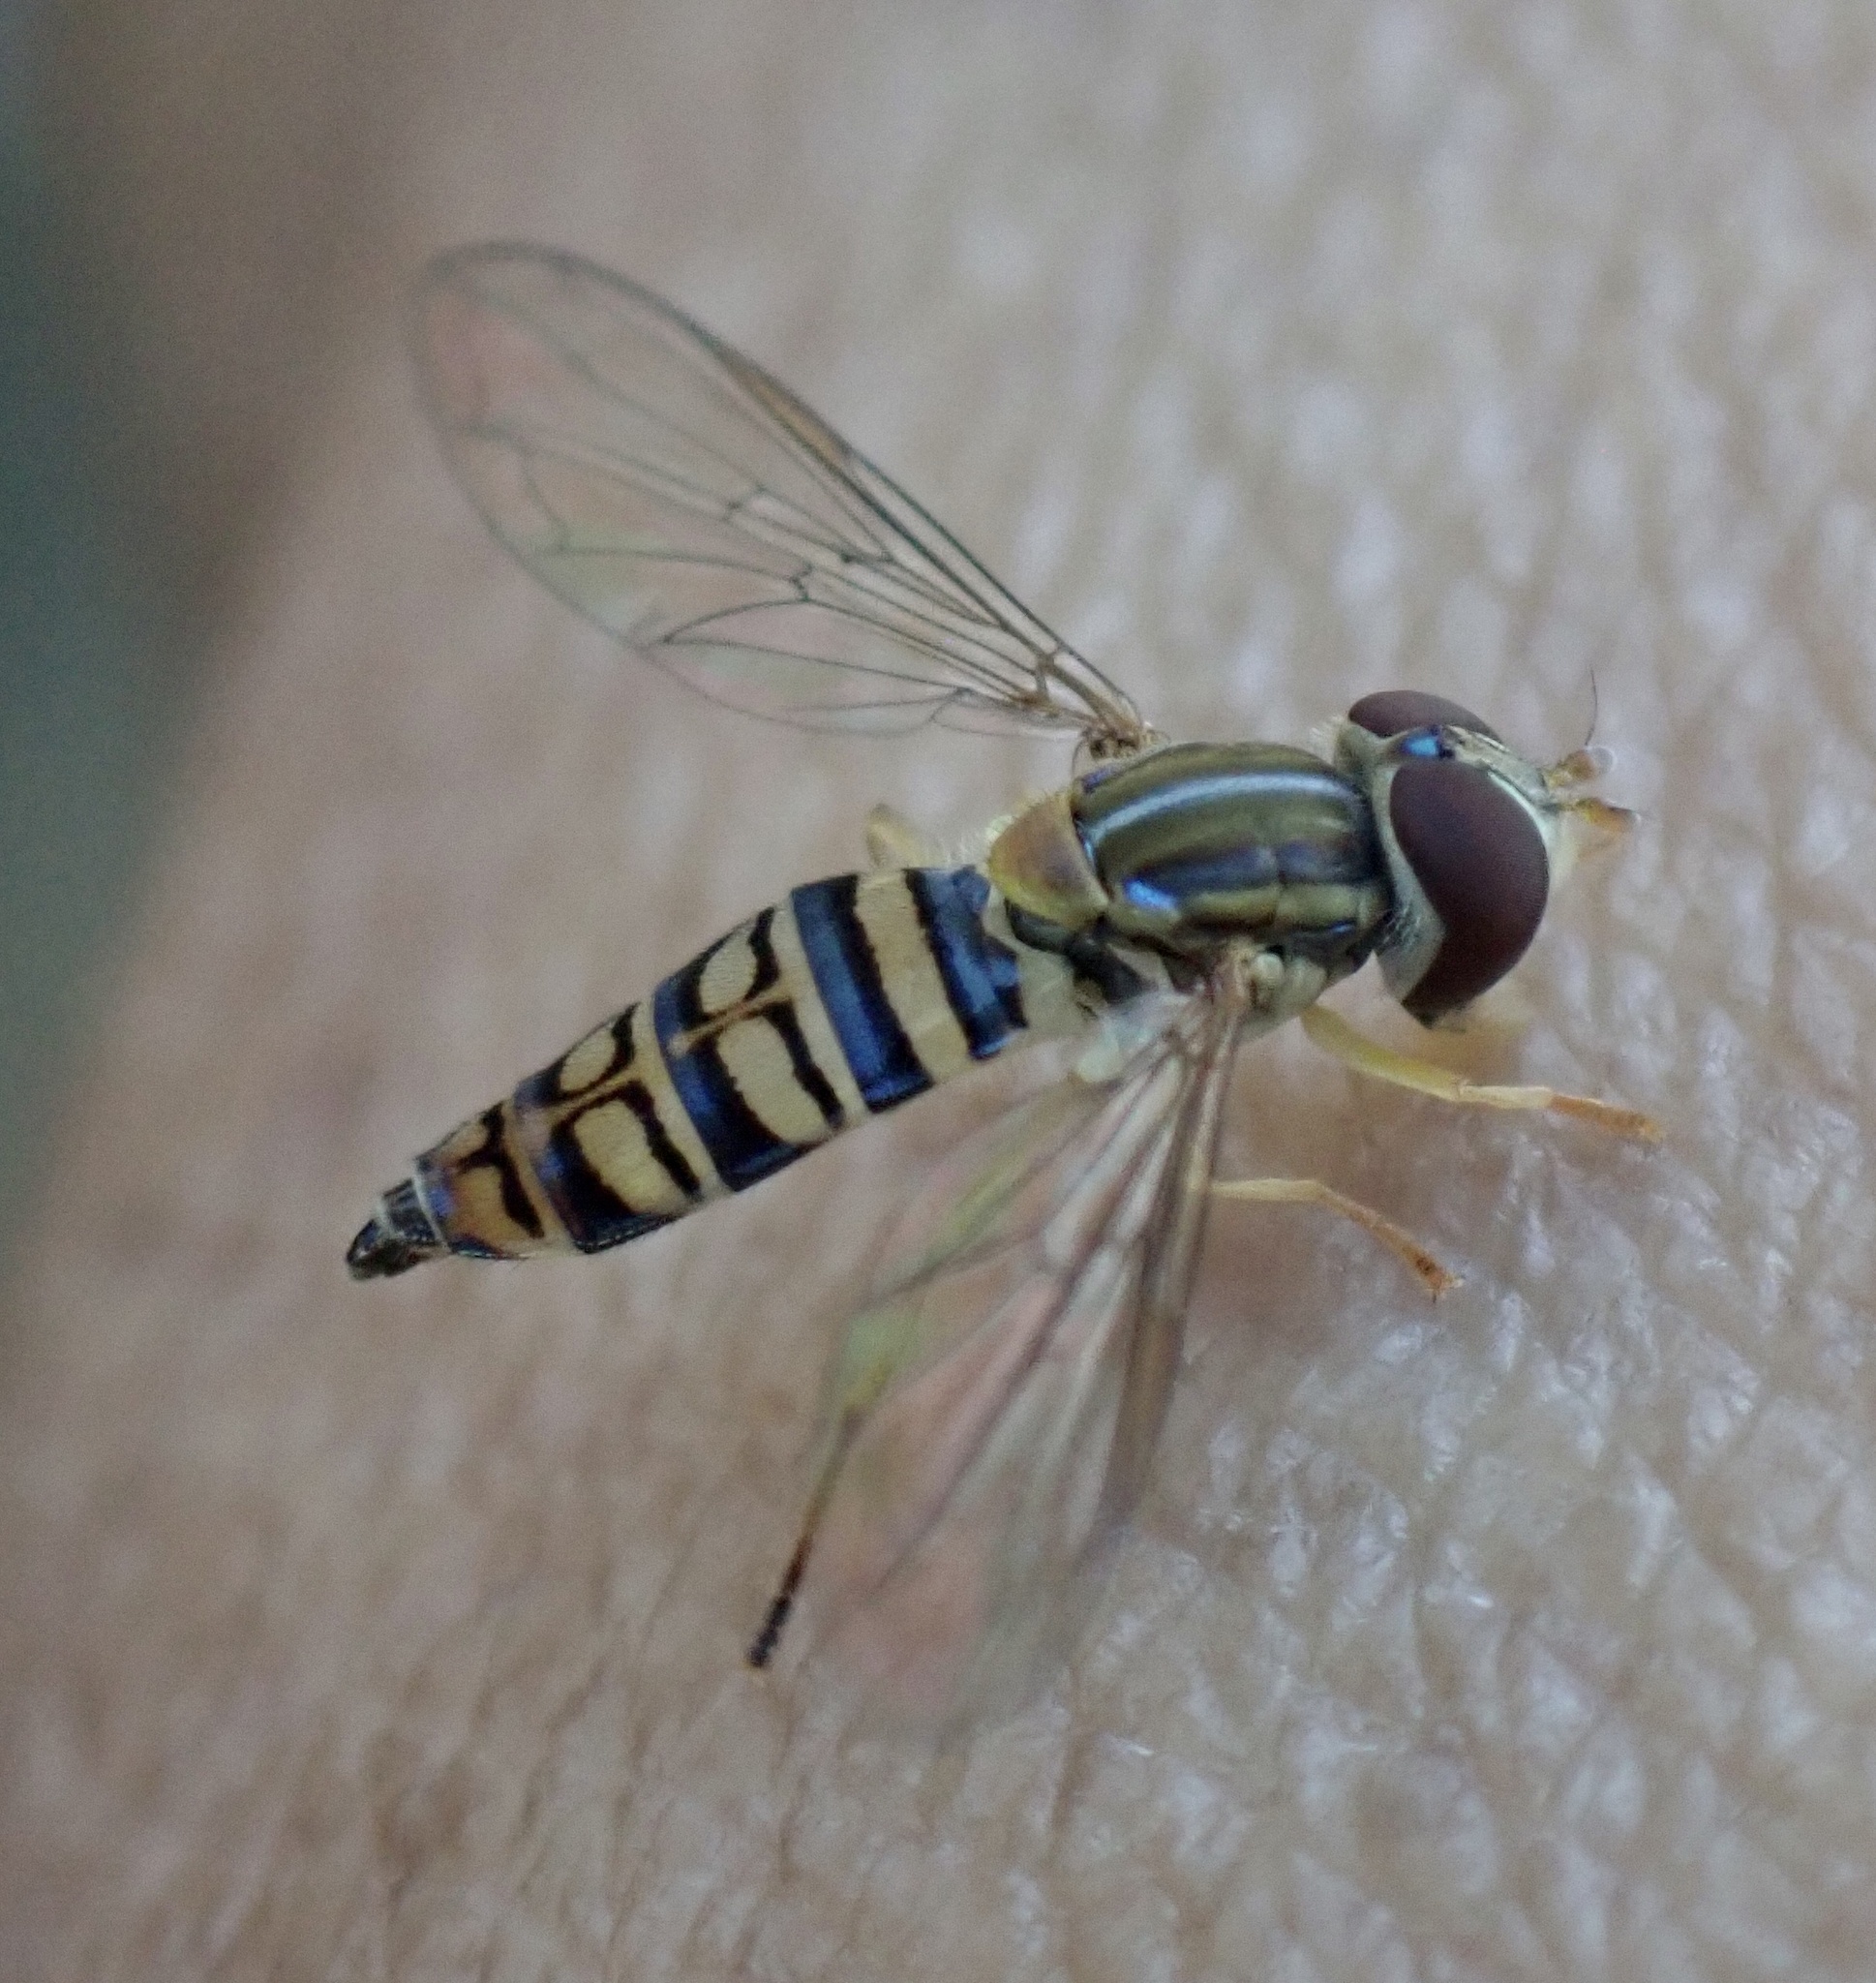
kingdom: Animalia
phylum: Arthropoda
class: Insecta
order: Diptera
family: Syrphidae
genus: Toxomerus
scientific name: Toxomerus politus
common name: Maize calligrapher
